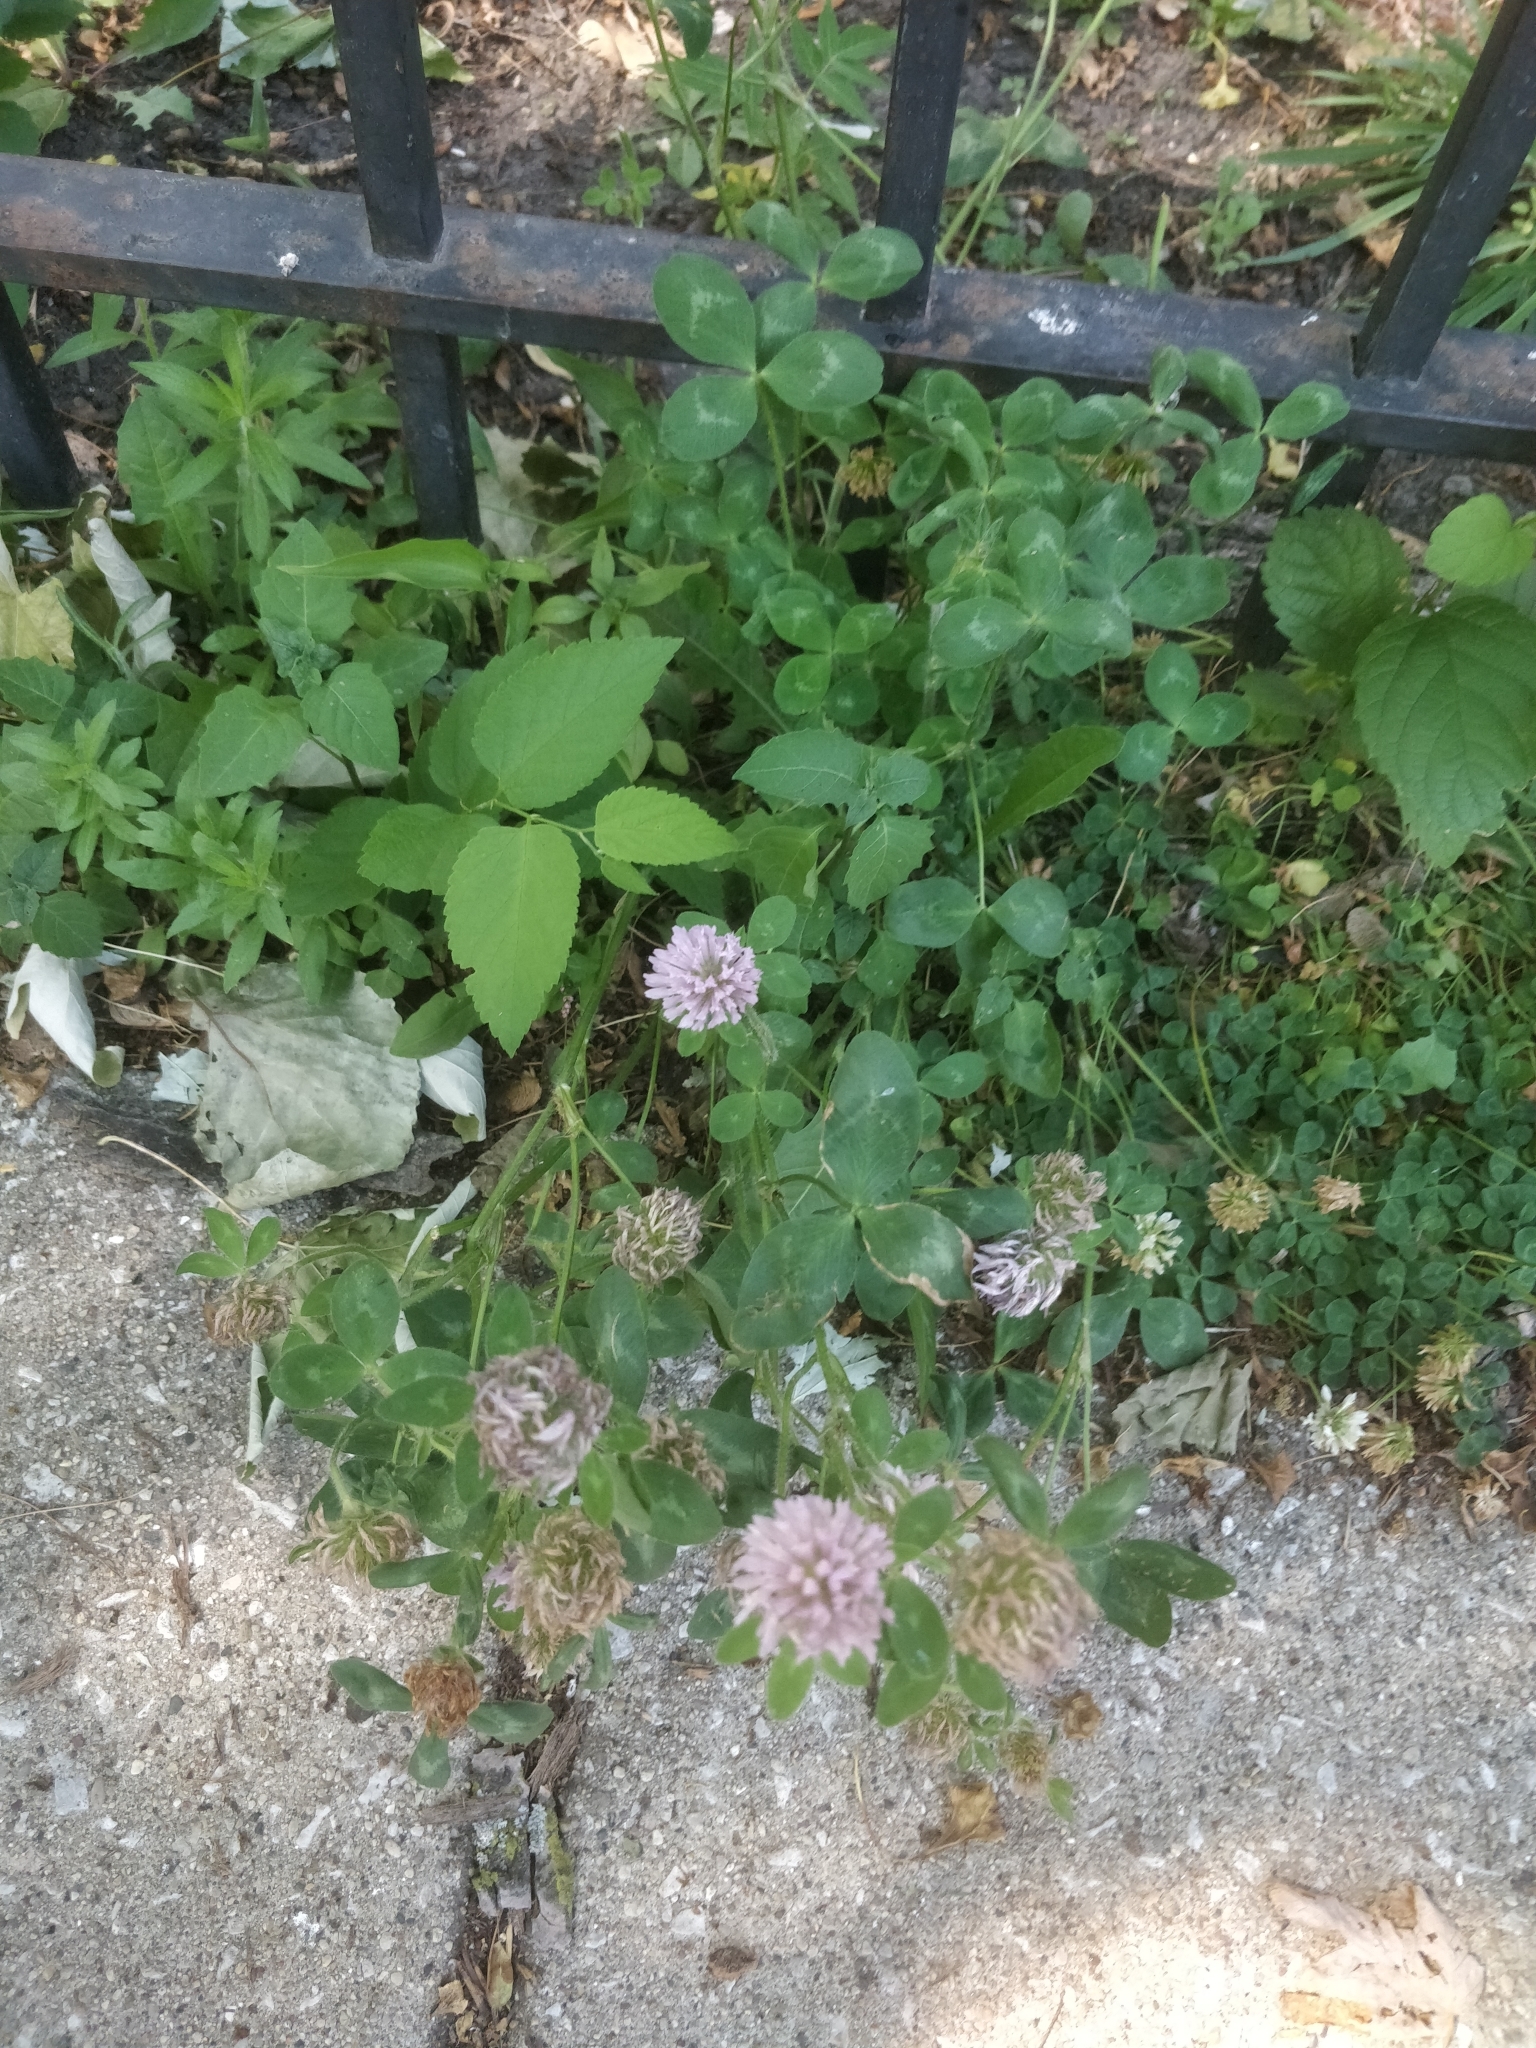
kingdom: Plantae
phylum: Tracheophyta
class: Magnoliopsida
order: Fabales
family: Fabaceae
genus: Trifolium
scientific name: Trifolium pratense
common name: Red clover
